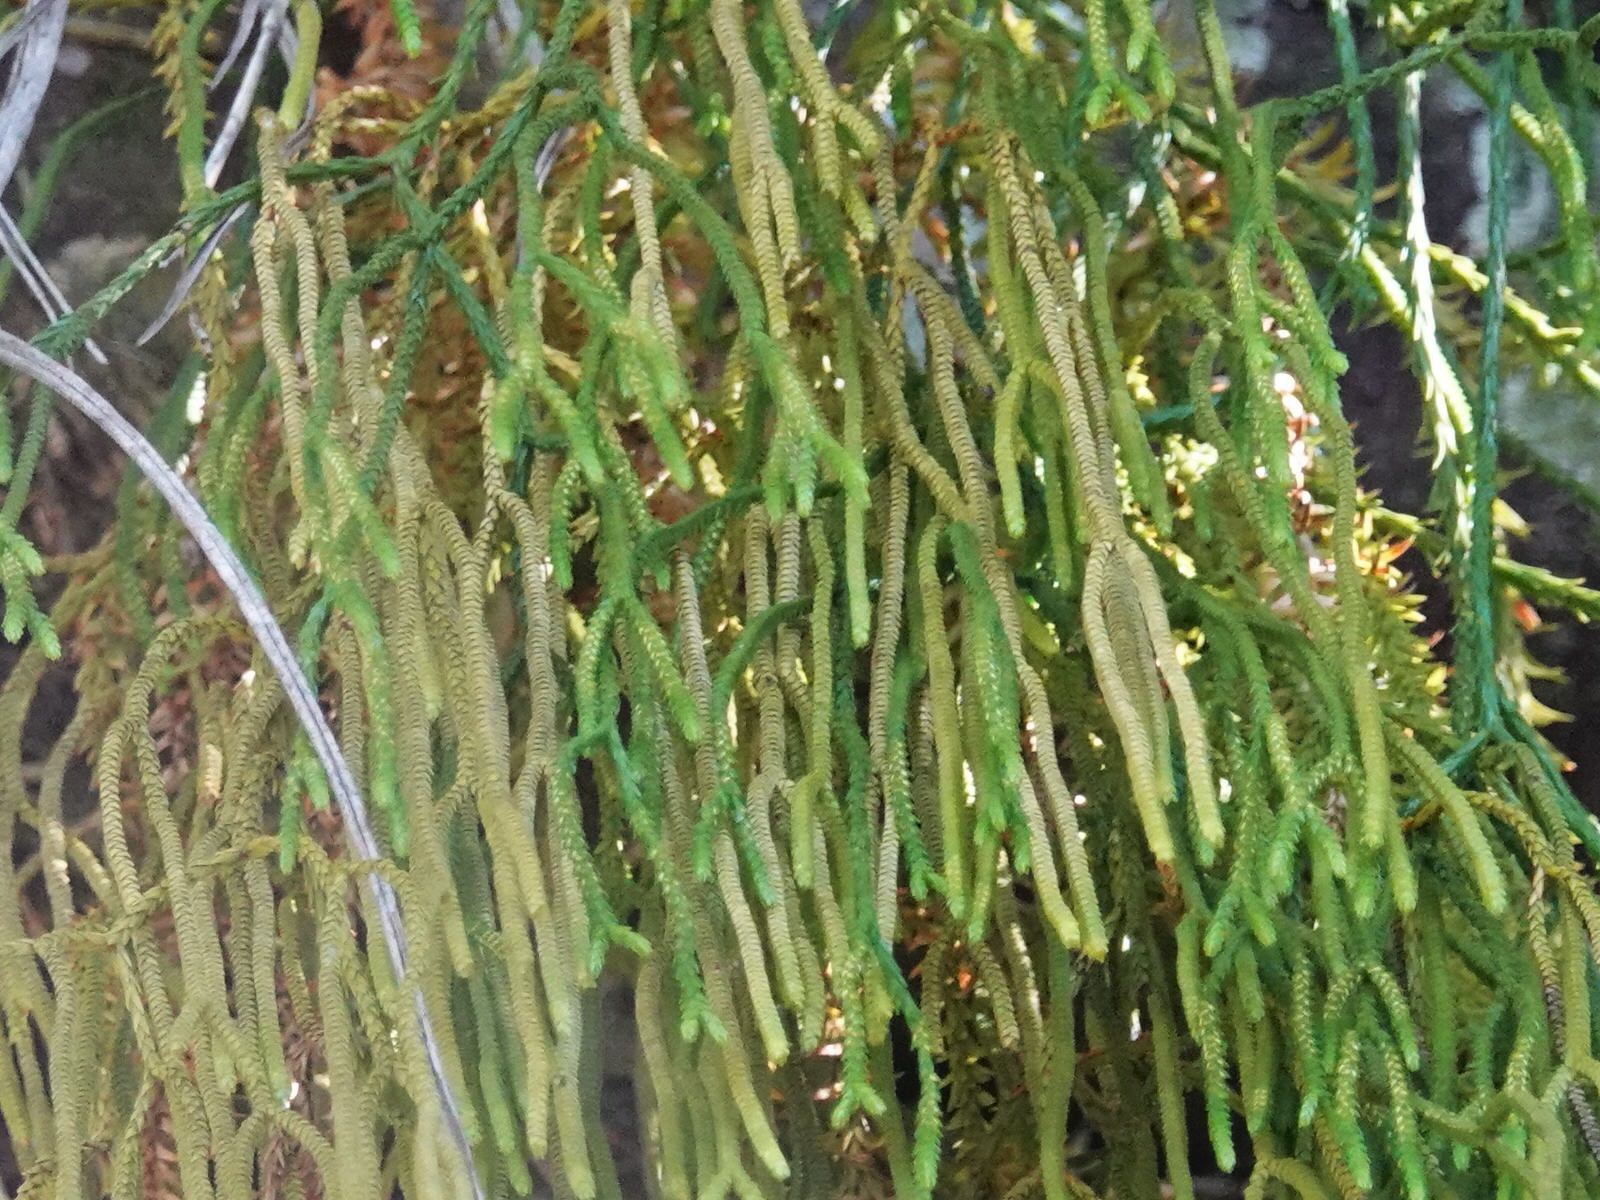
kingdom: Plantae
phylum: Tracheophyta
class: Lycopodiopsida
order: Lycopodiales
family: Lycopodiaceae
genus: Phlegmariurus
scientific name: Phlegmariurus billardierei
